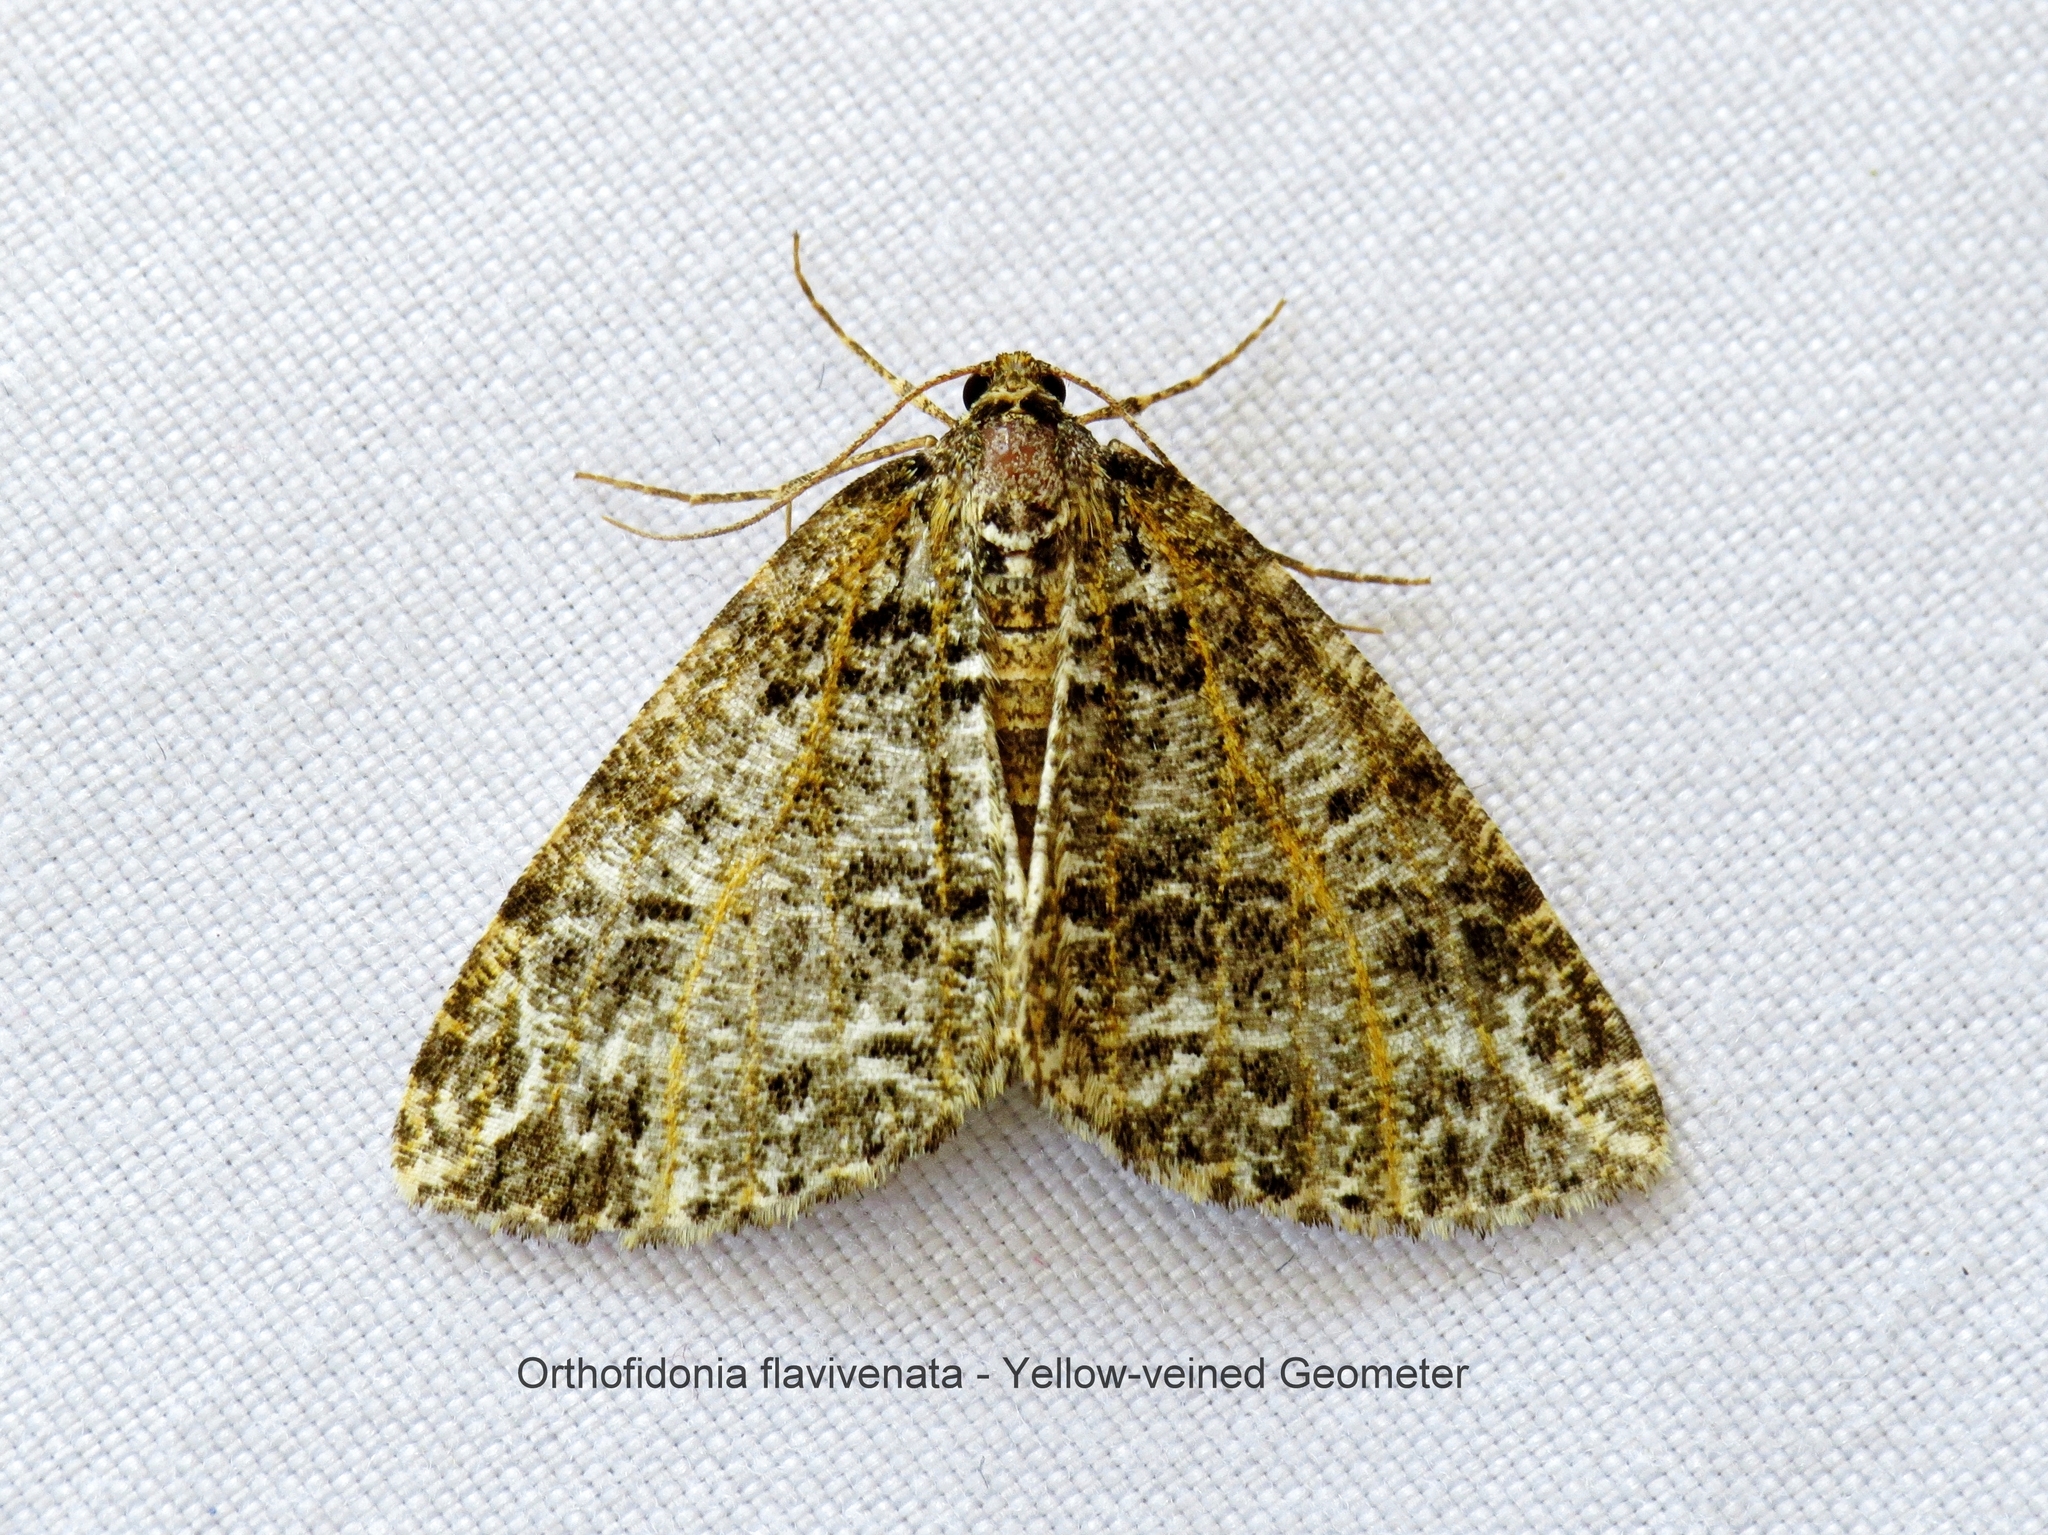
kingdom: Animalia
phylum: Arthropoda
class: Insecta
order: Lepidoptera
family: Geometridae
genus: Orthofidonia
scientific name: Orthofidonia flavivenata
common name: Yellow-veined geometer moth
